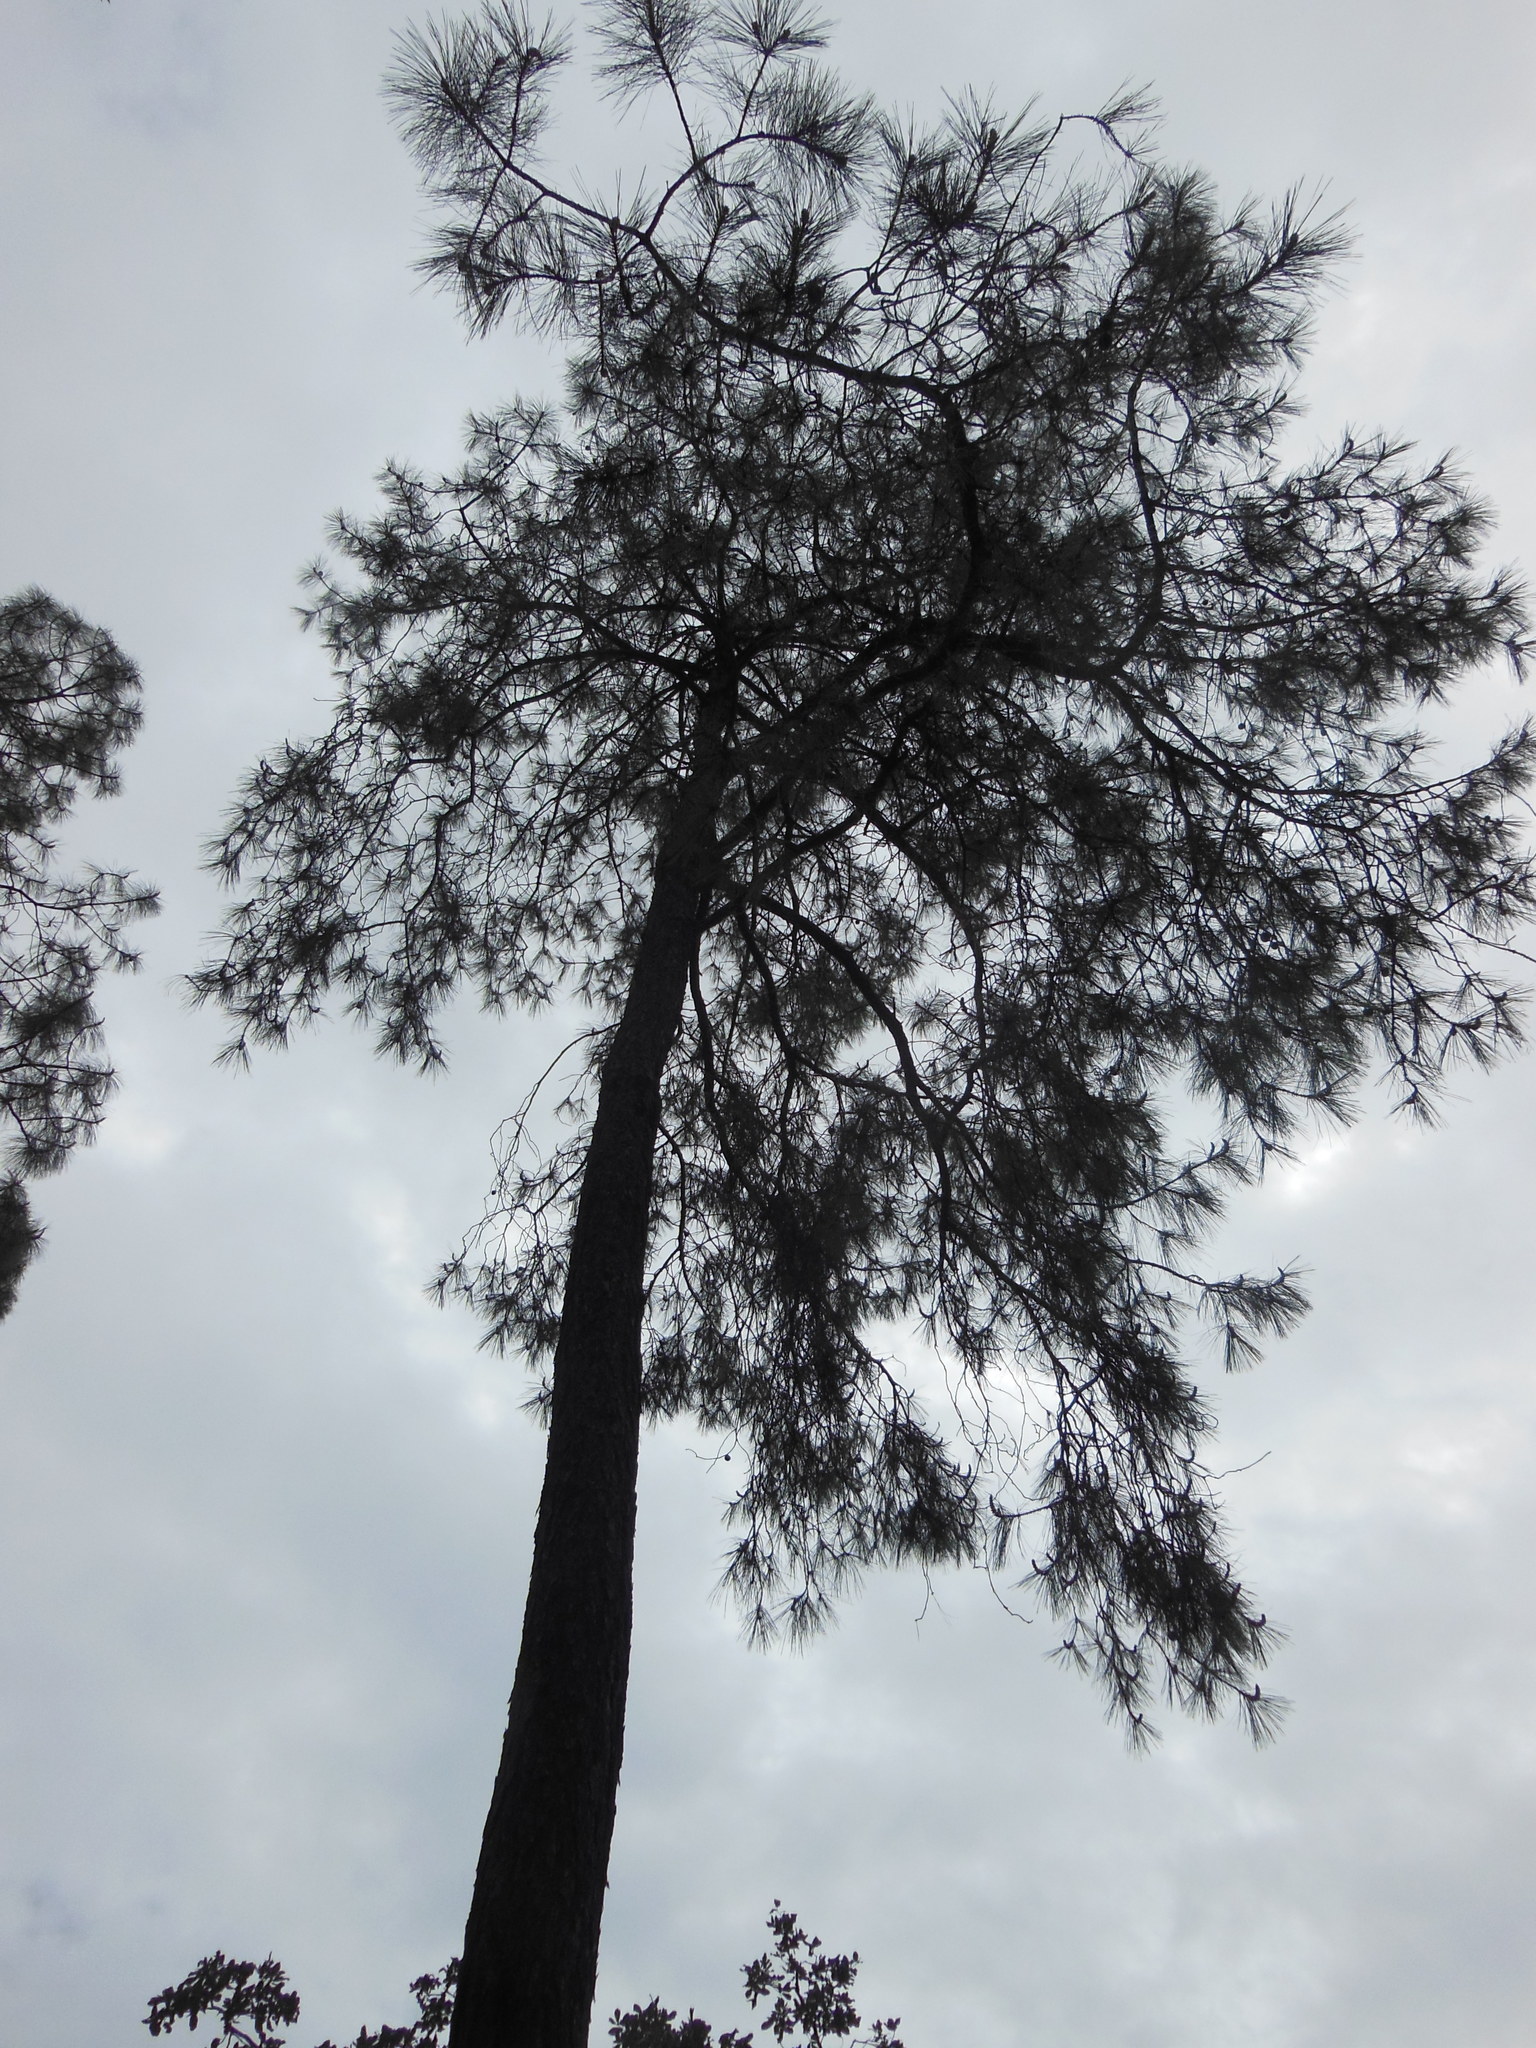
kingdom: Plantae
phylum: Tracheophyta
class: Pinopsida
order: Pinales
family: Pinaceae
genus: Pinus
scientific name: Pinus luzmariae
